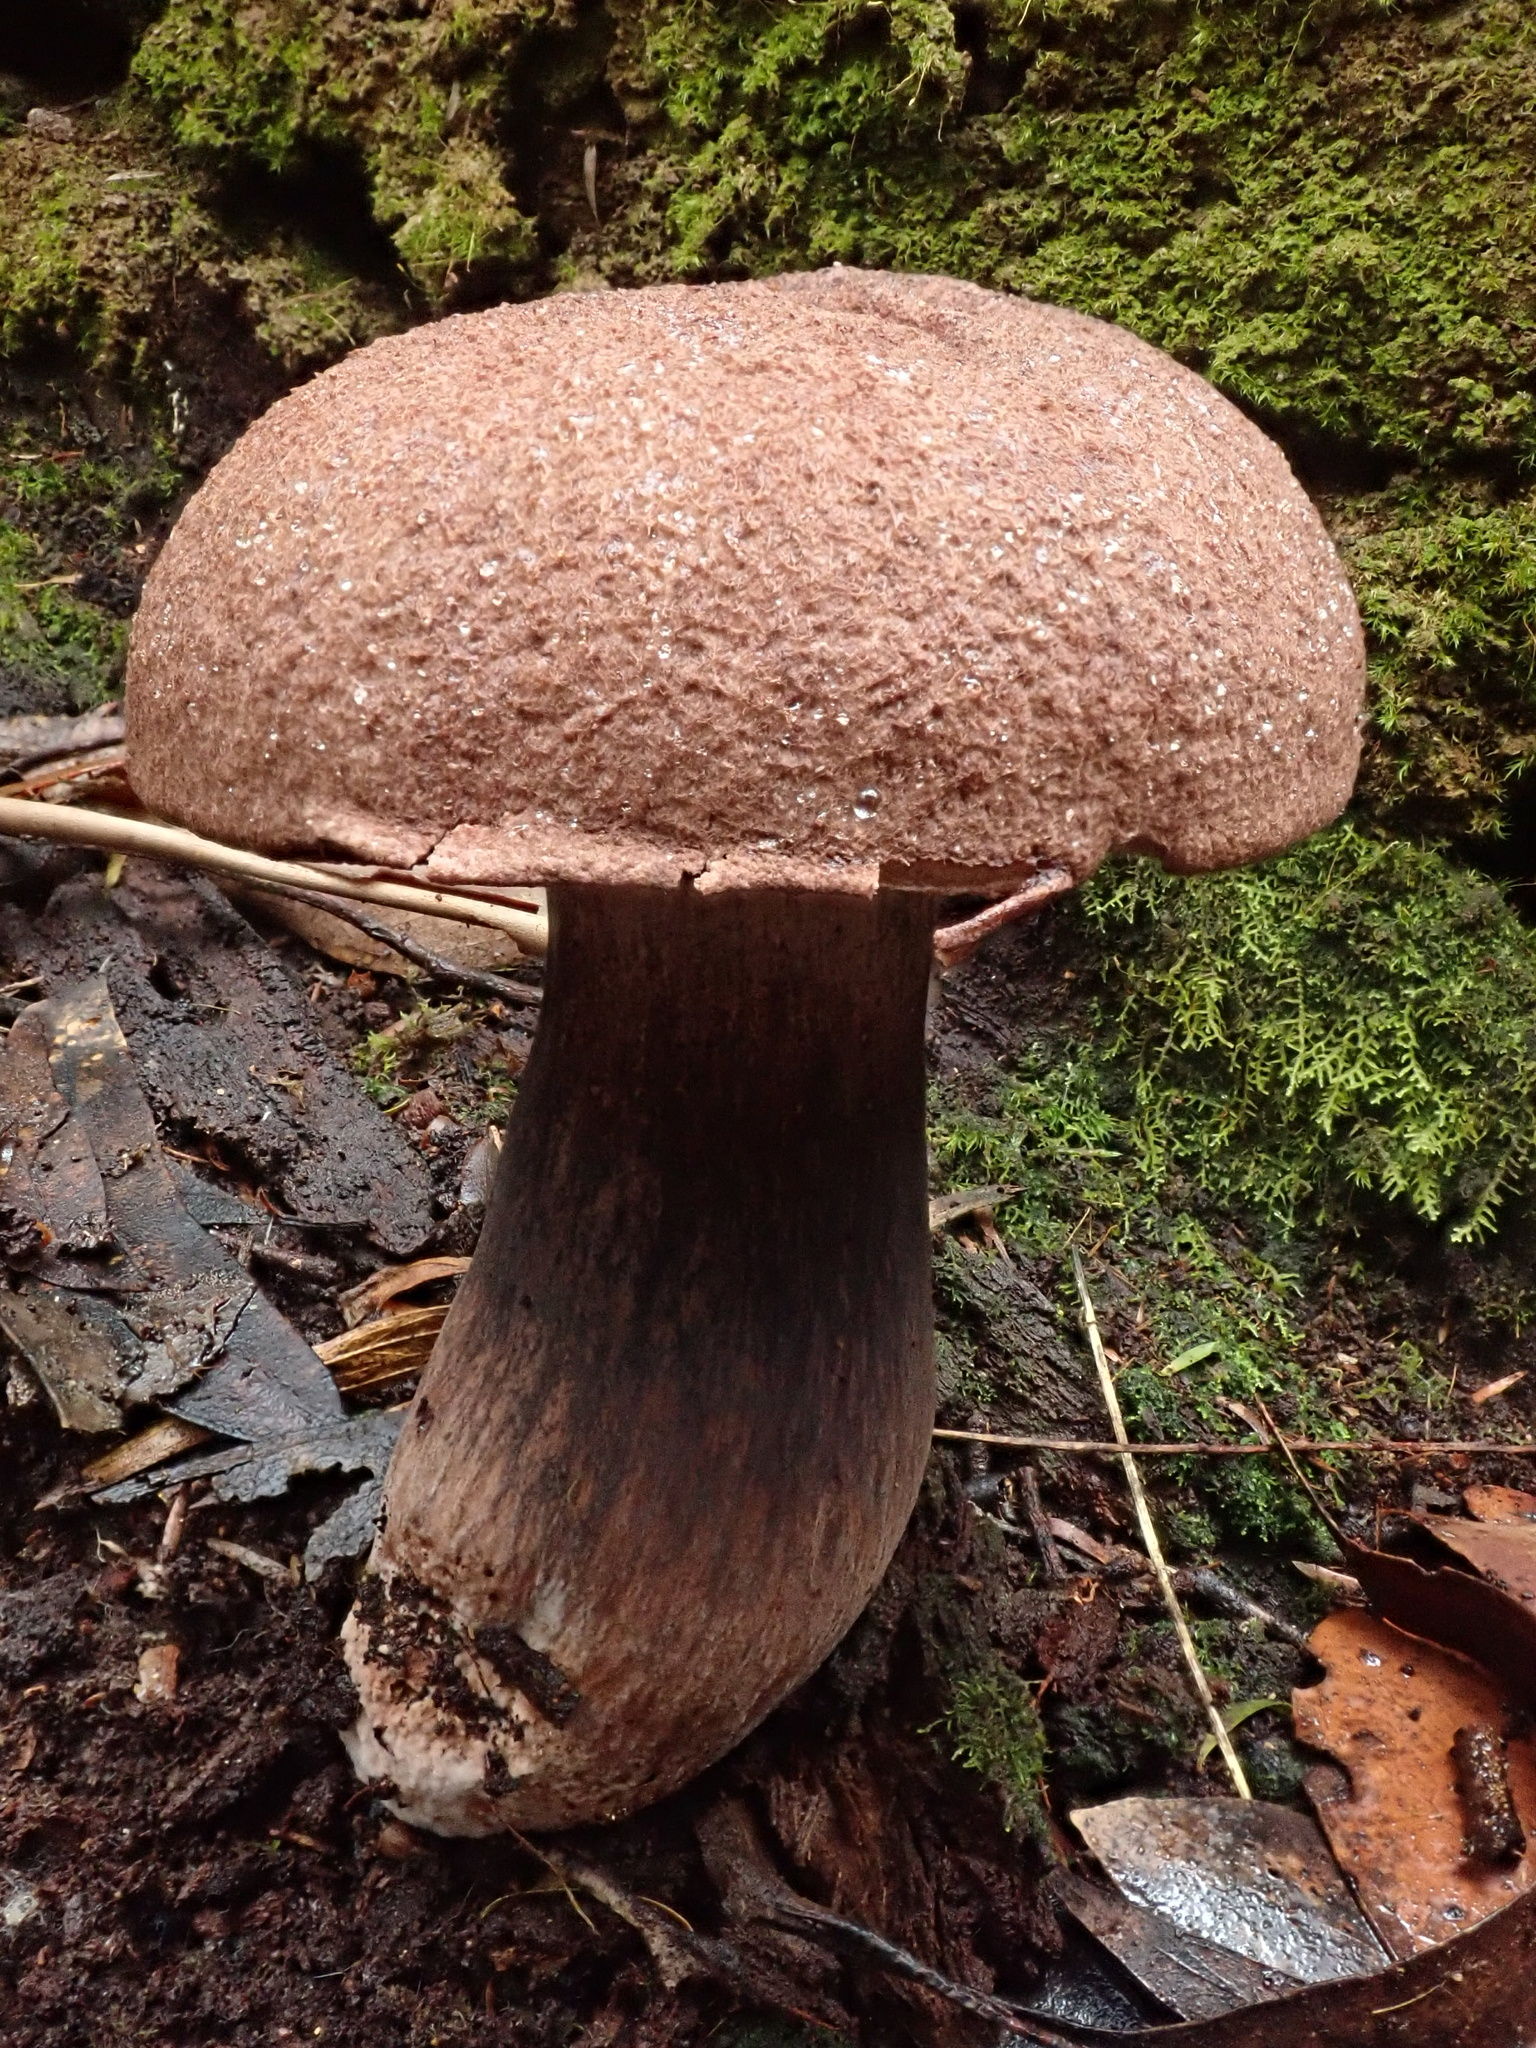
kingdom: Fungi
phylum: Basidiomycota
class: Agaricomycetes
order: Boletales
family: Boletaceae
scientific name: Boletaceae
